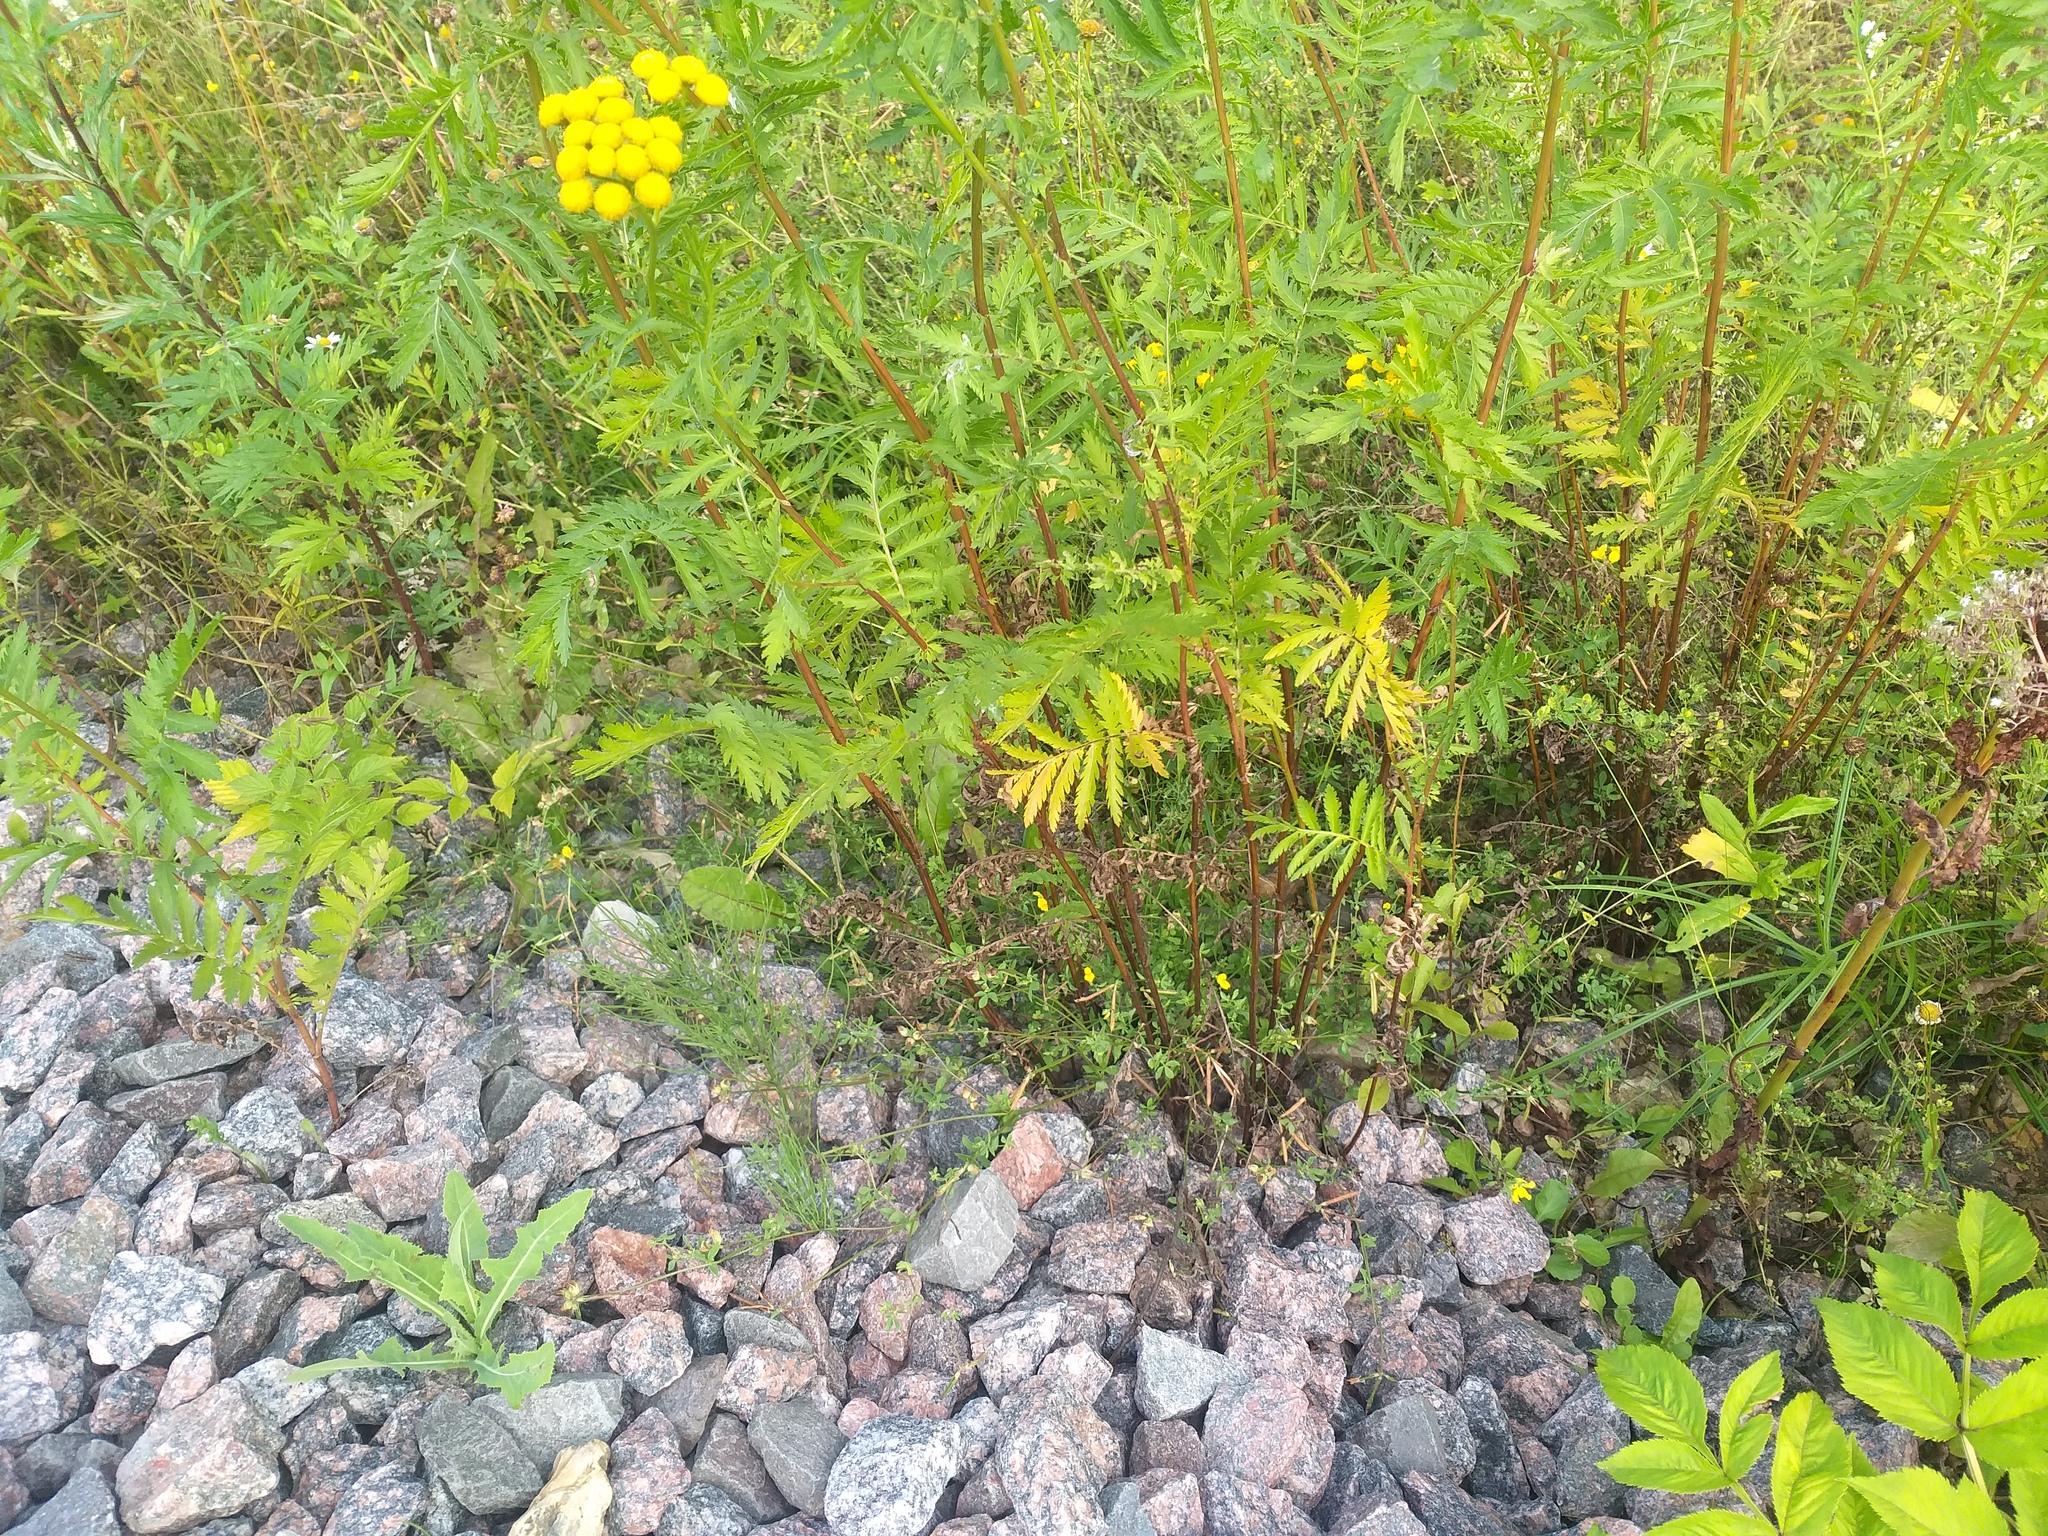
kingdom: Plantae
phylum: Tracheophyta
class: Magnoliopsida
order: Fabales
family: Fabaceae
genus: Lotus
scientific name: Lotus corniculatus
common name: Common bird's-foot-trefoil
